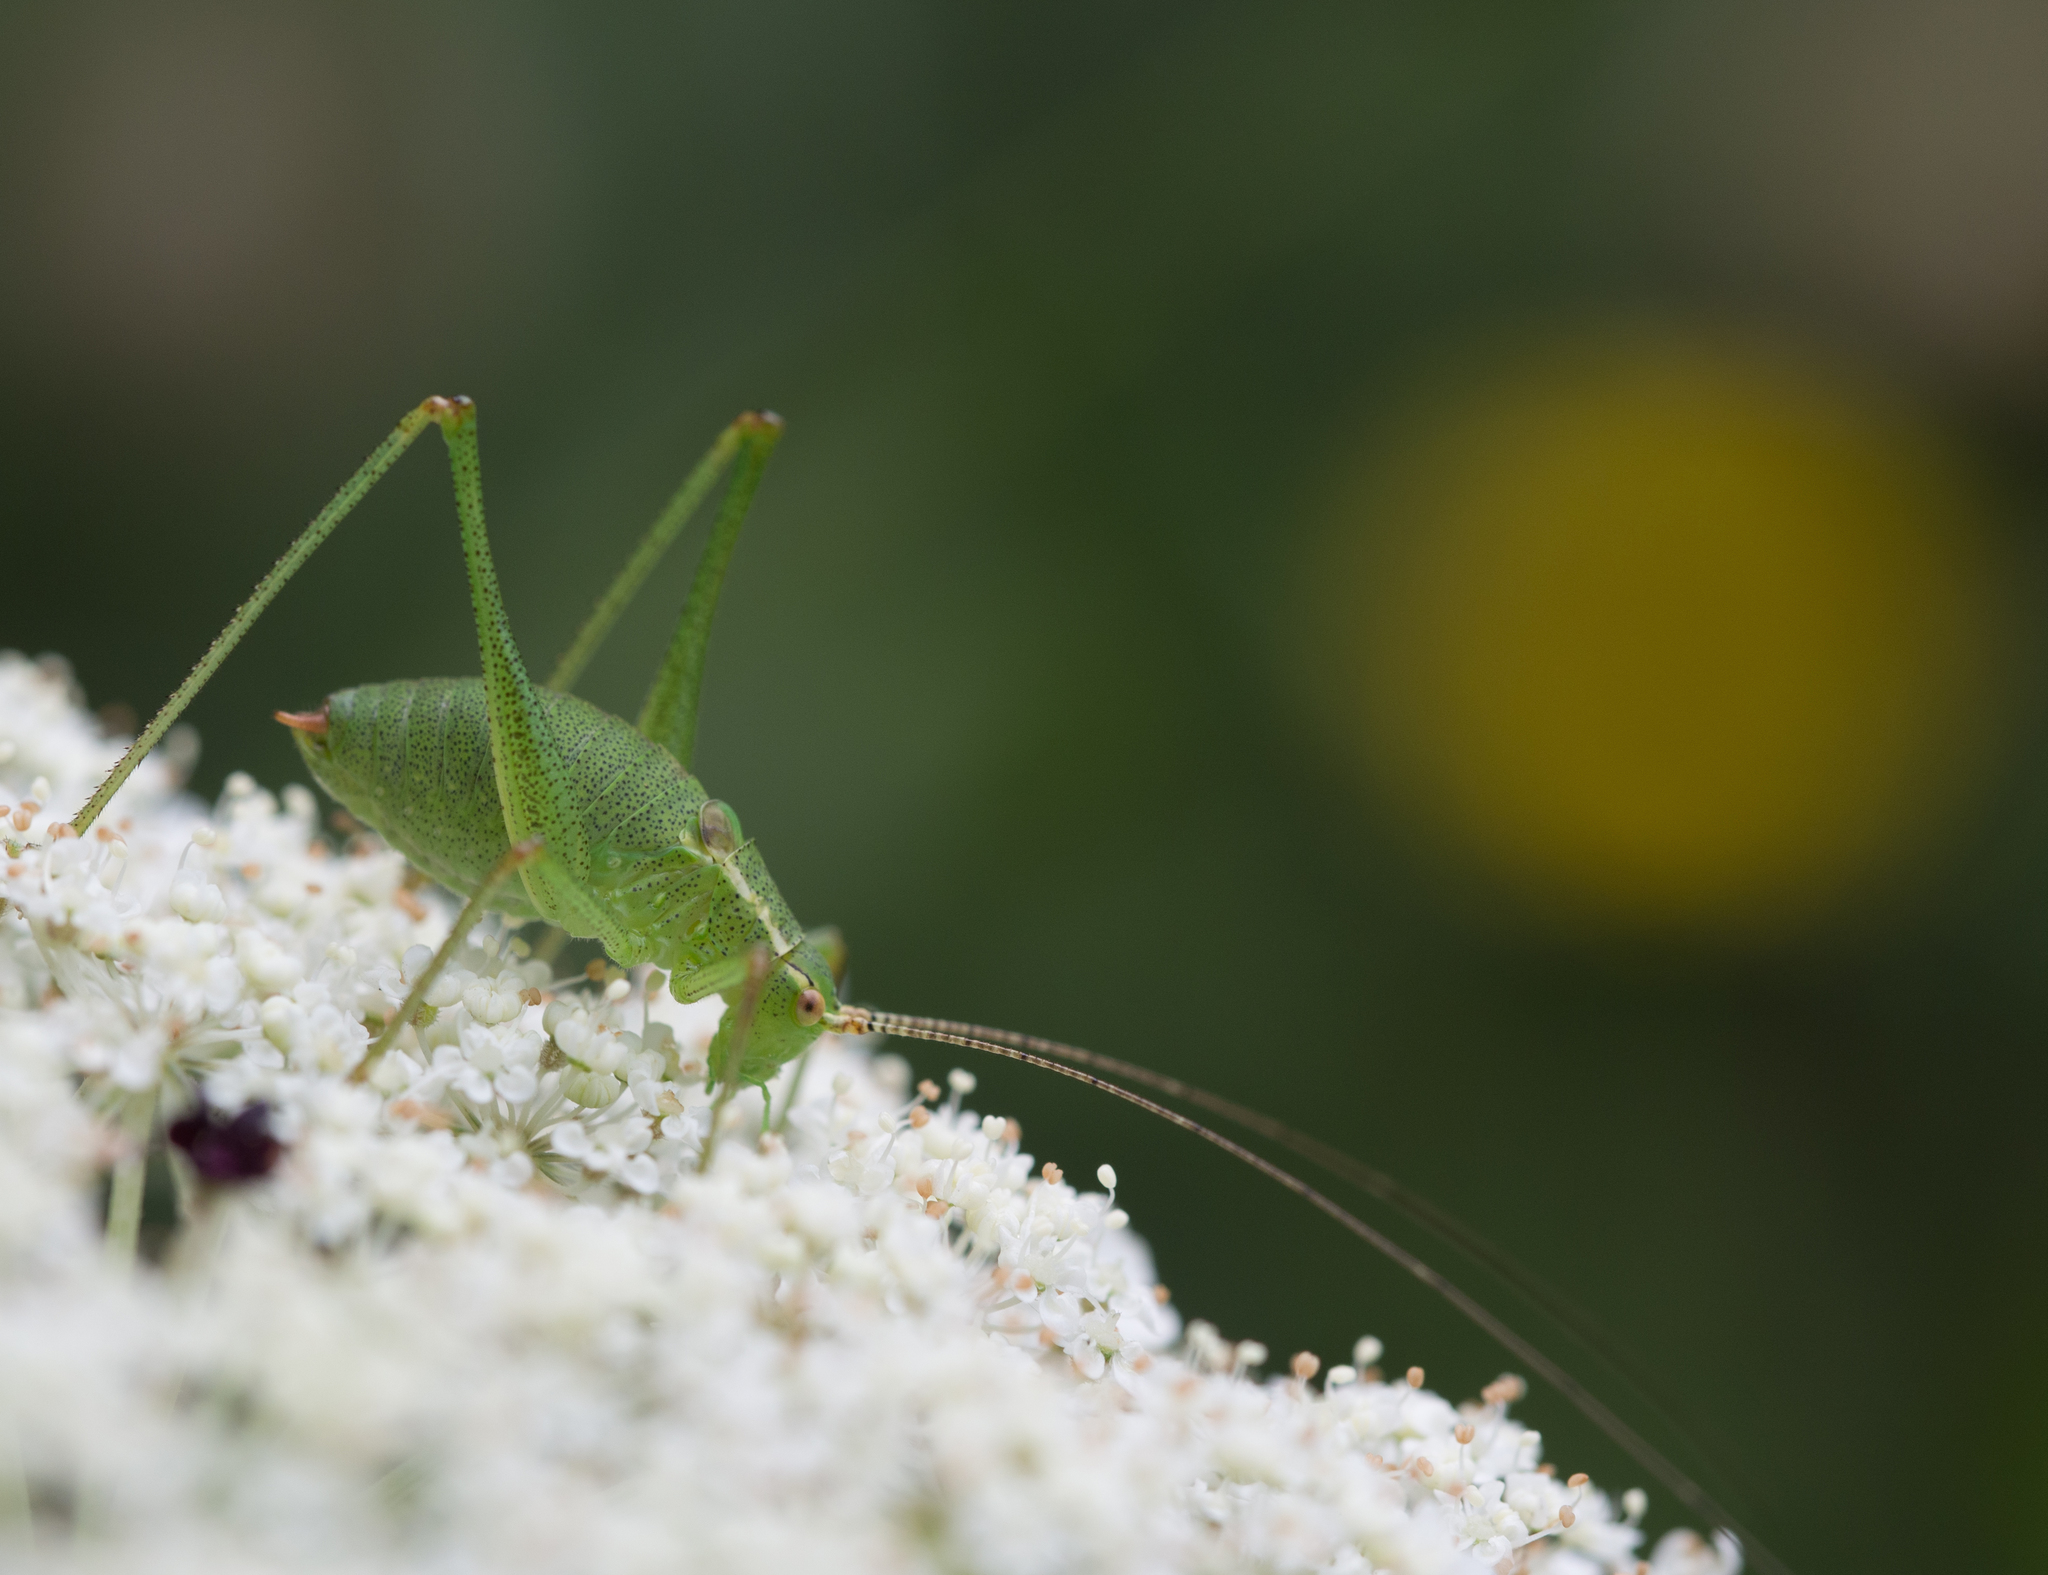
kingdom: Animalia
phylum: Arthropoda
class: Insecta
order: Orthoptera
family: Tettigoniidae
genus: Leptophyes
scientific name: Leptophyes punctatissima
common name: Speckled bush-cricket
